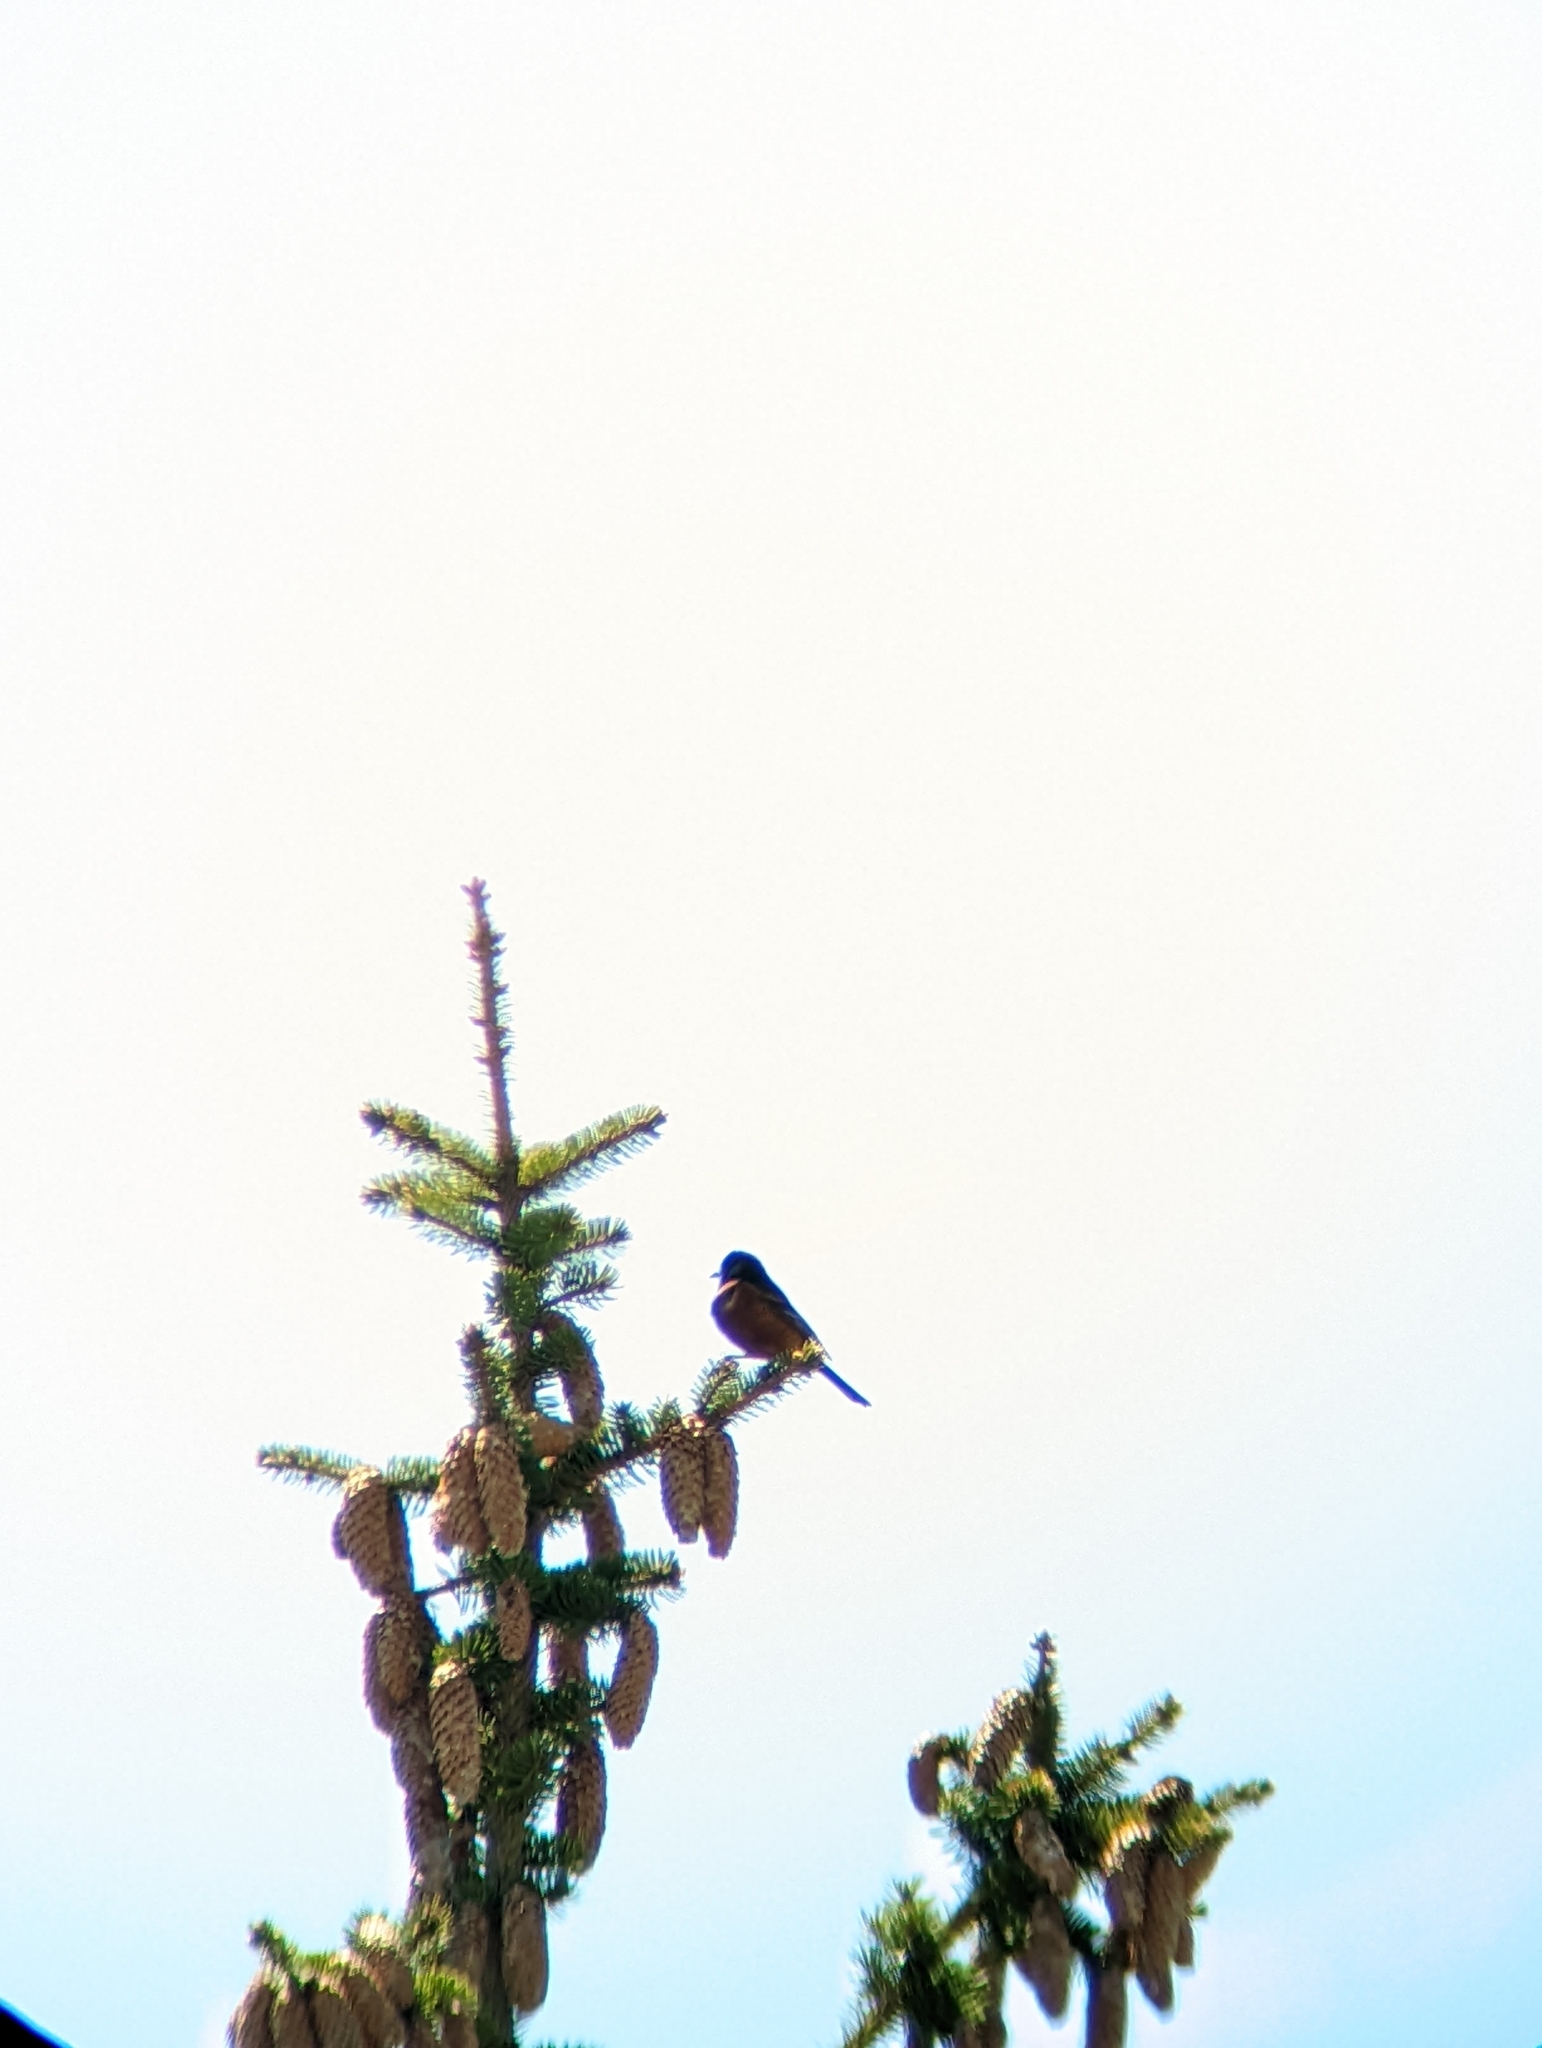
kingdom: Animalia
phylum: Chordata
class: Aves
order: Passeriformes
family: Icteridae
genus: Icterus
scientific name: Icterus spurius
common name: Orchard oriole
